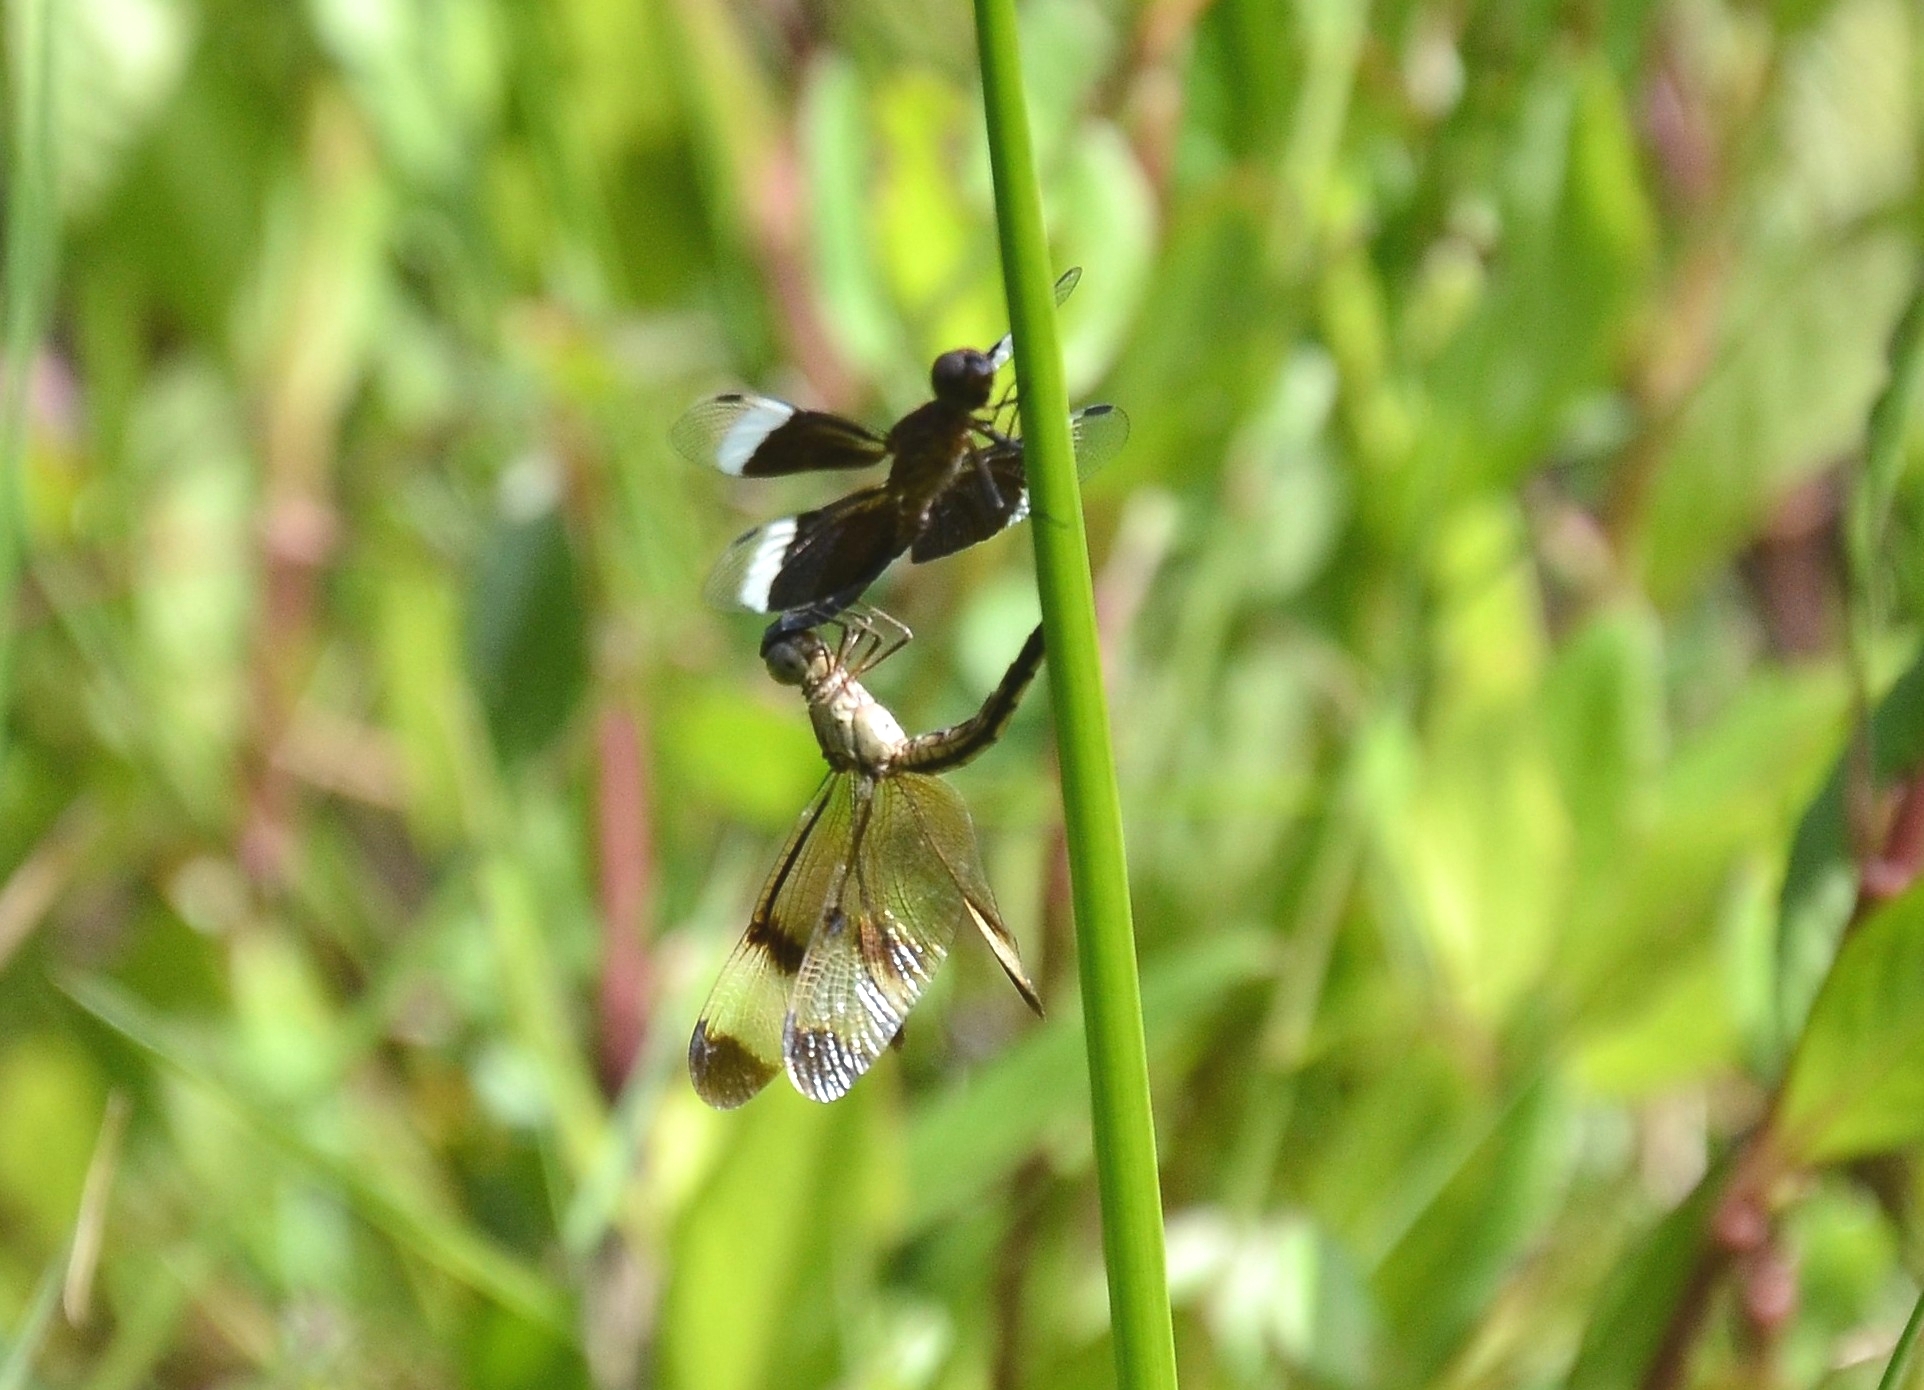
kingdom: Animalia
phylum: Arthropoda
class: Insecta
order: Odonata
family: Libellulidae
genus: Neurothemis
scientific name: Neurothemis tullia
